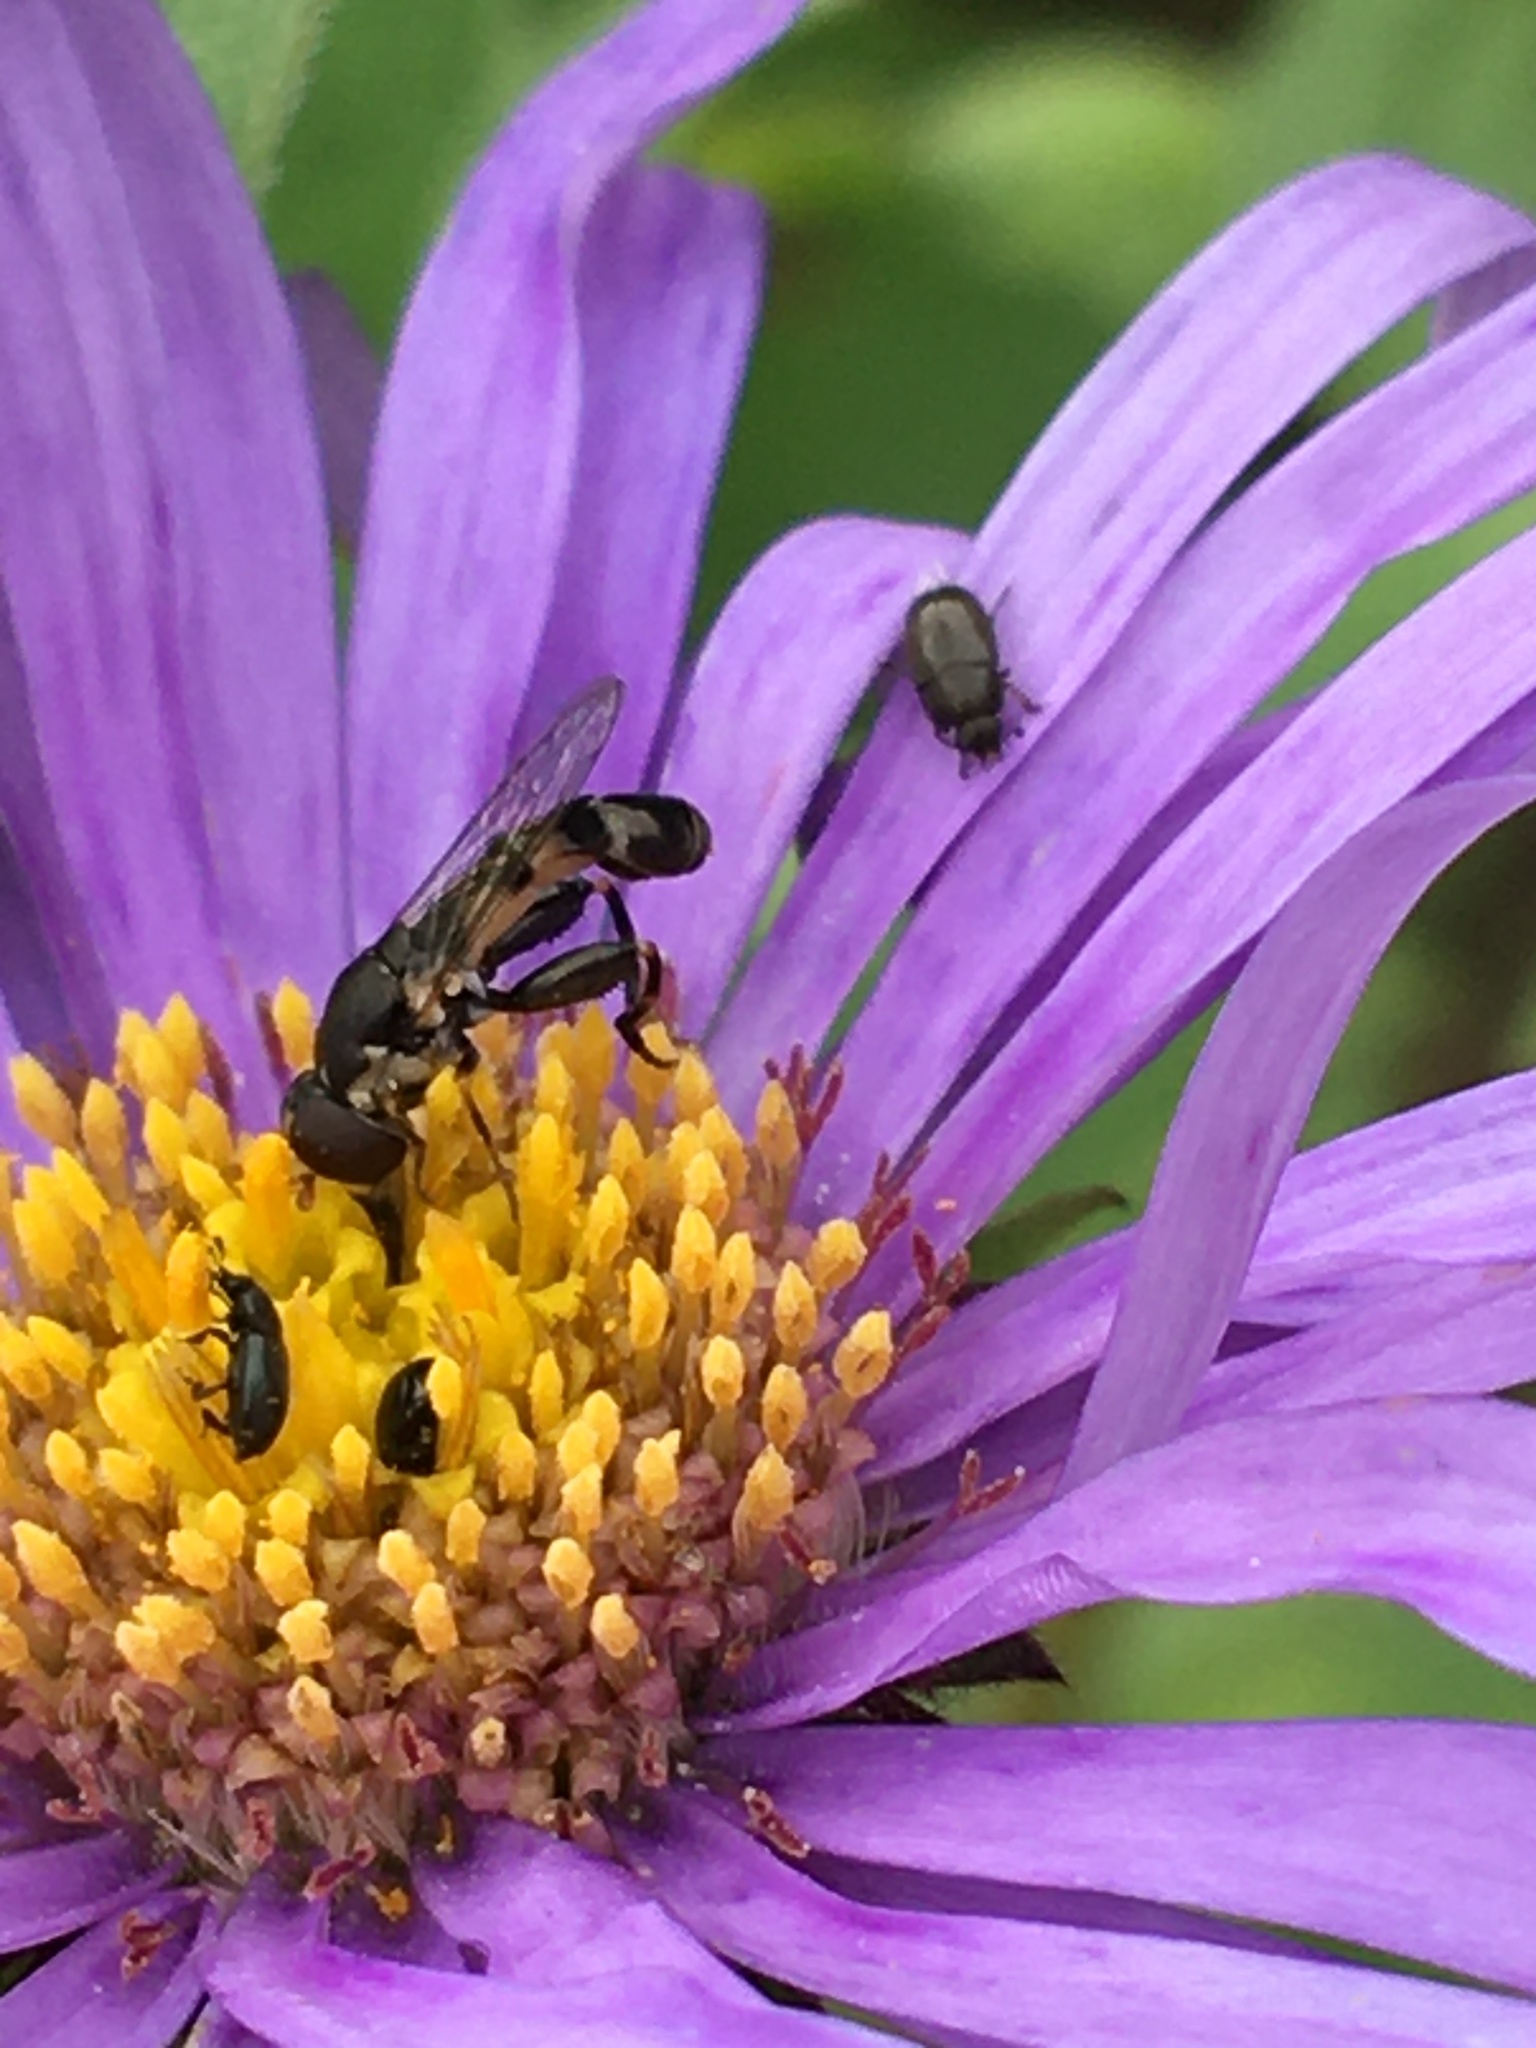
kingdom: Animalia
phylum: Arthropoda
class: Insecta
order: Diptera
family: Syrphidae
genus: Syritta
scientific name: Syritta pipiens
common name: Hover fly
